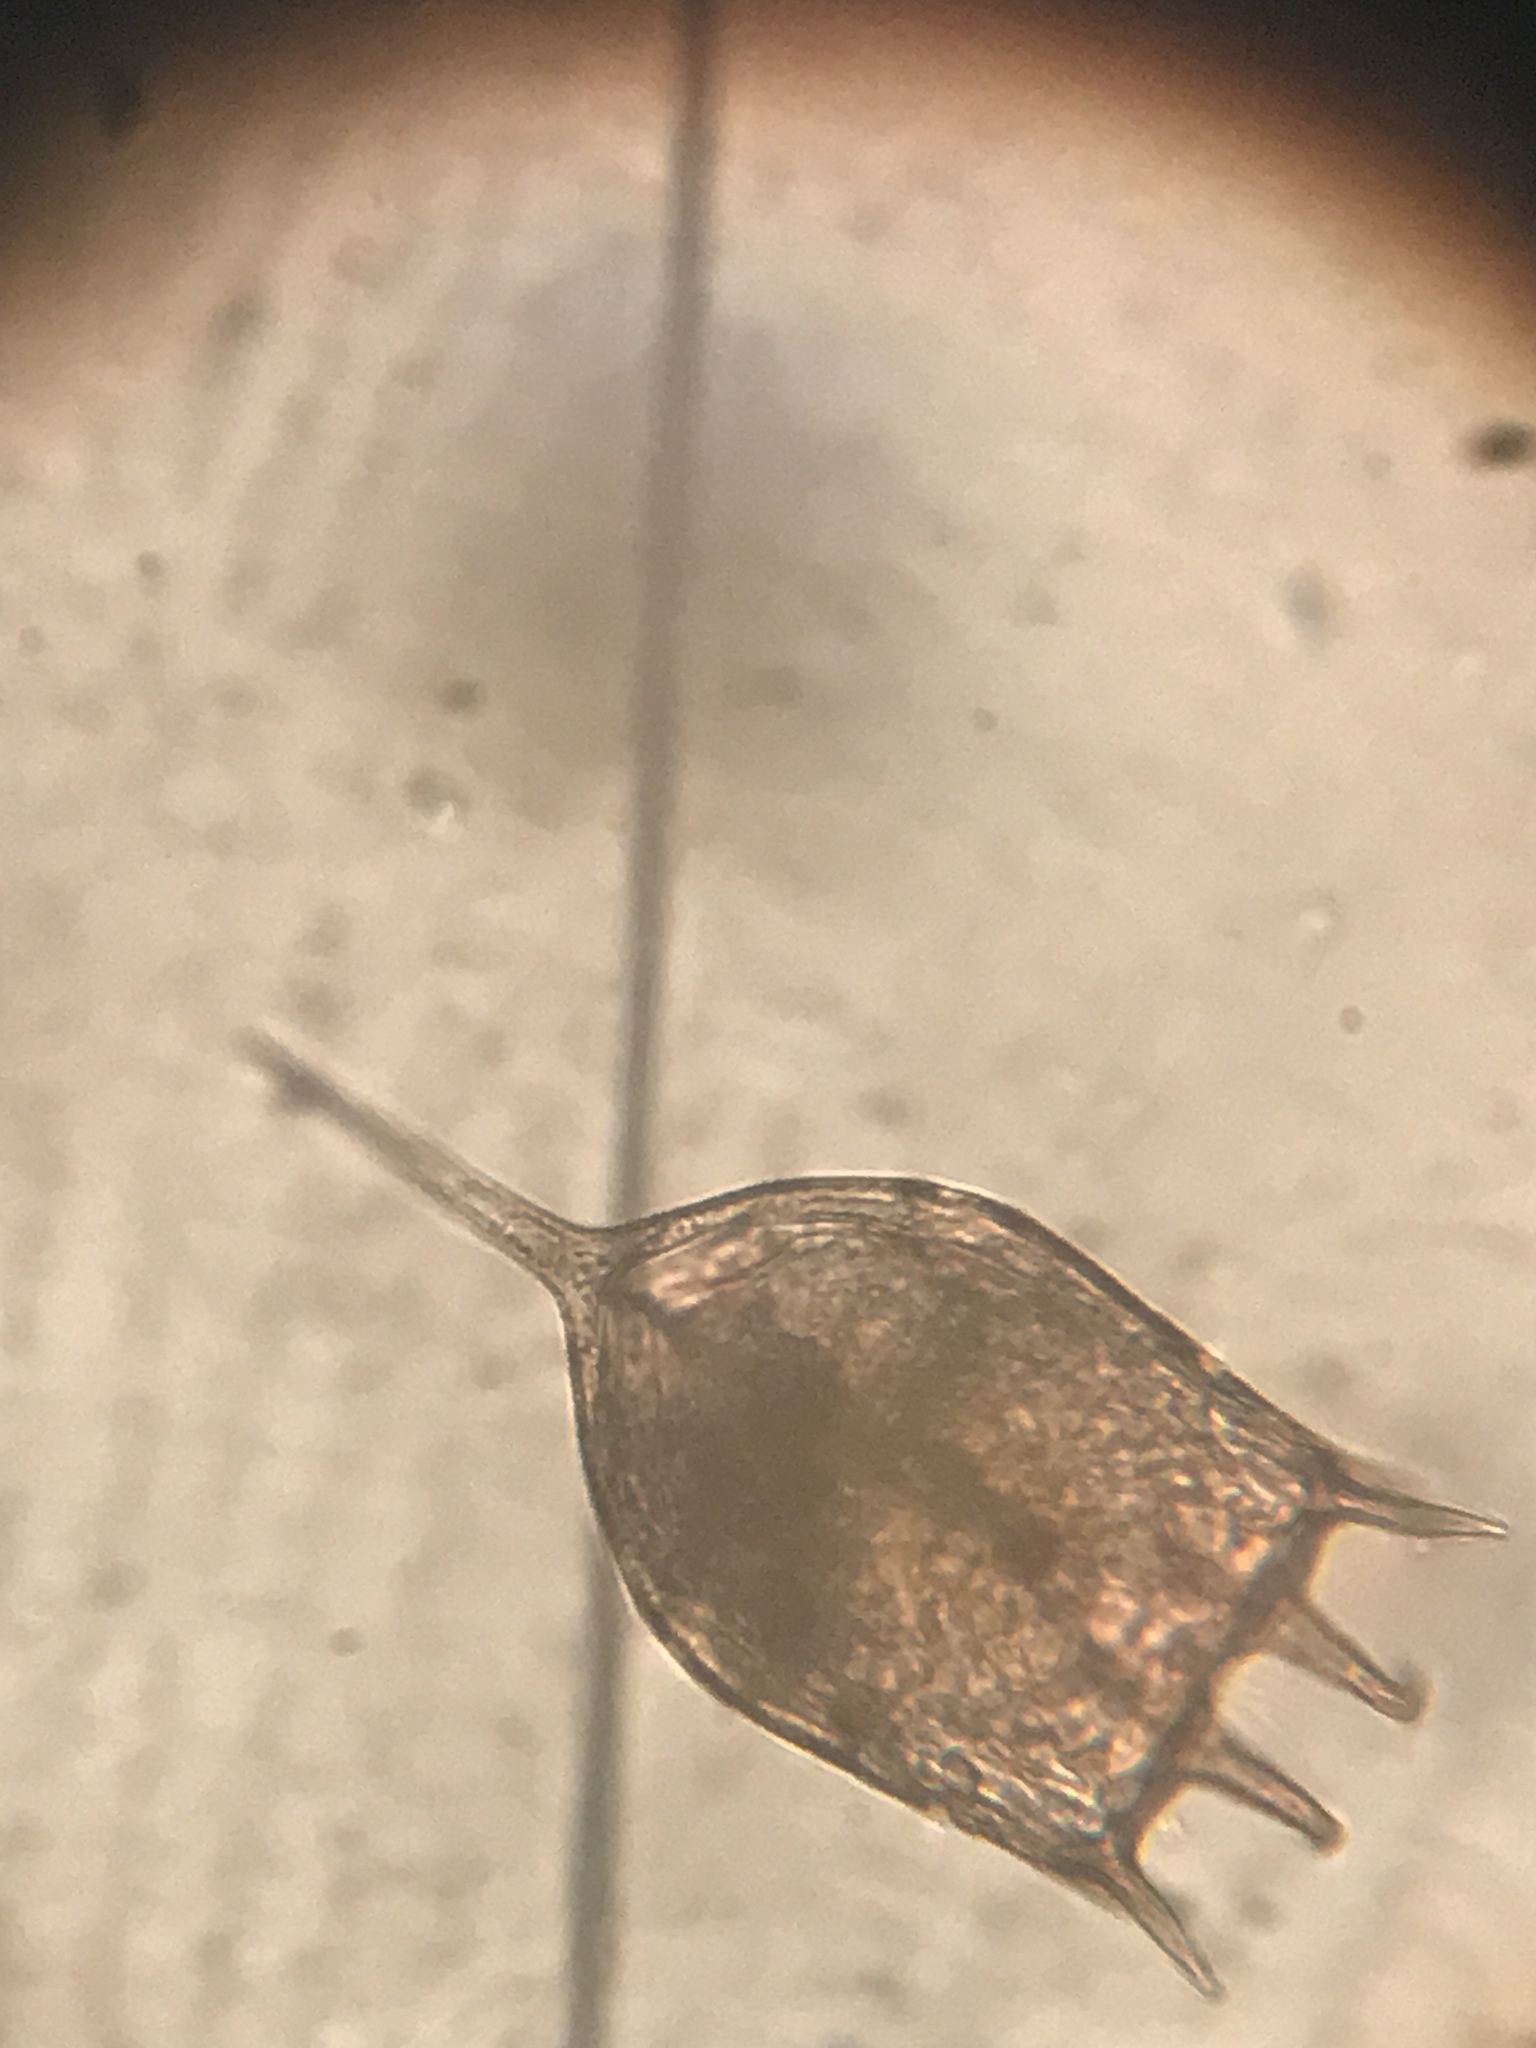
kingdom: Animalia
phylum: Rotifera
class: Eurotatoria
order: Ploima
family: Brachionidae
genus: Keratella
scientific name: Keratella cochlearis
